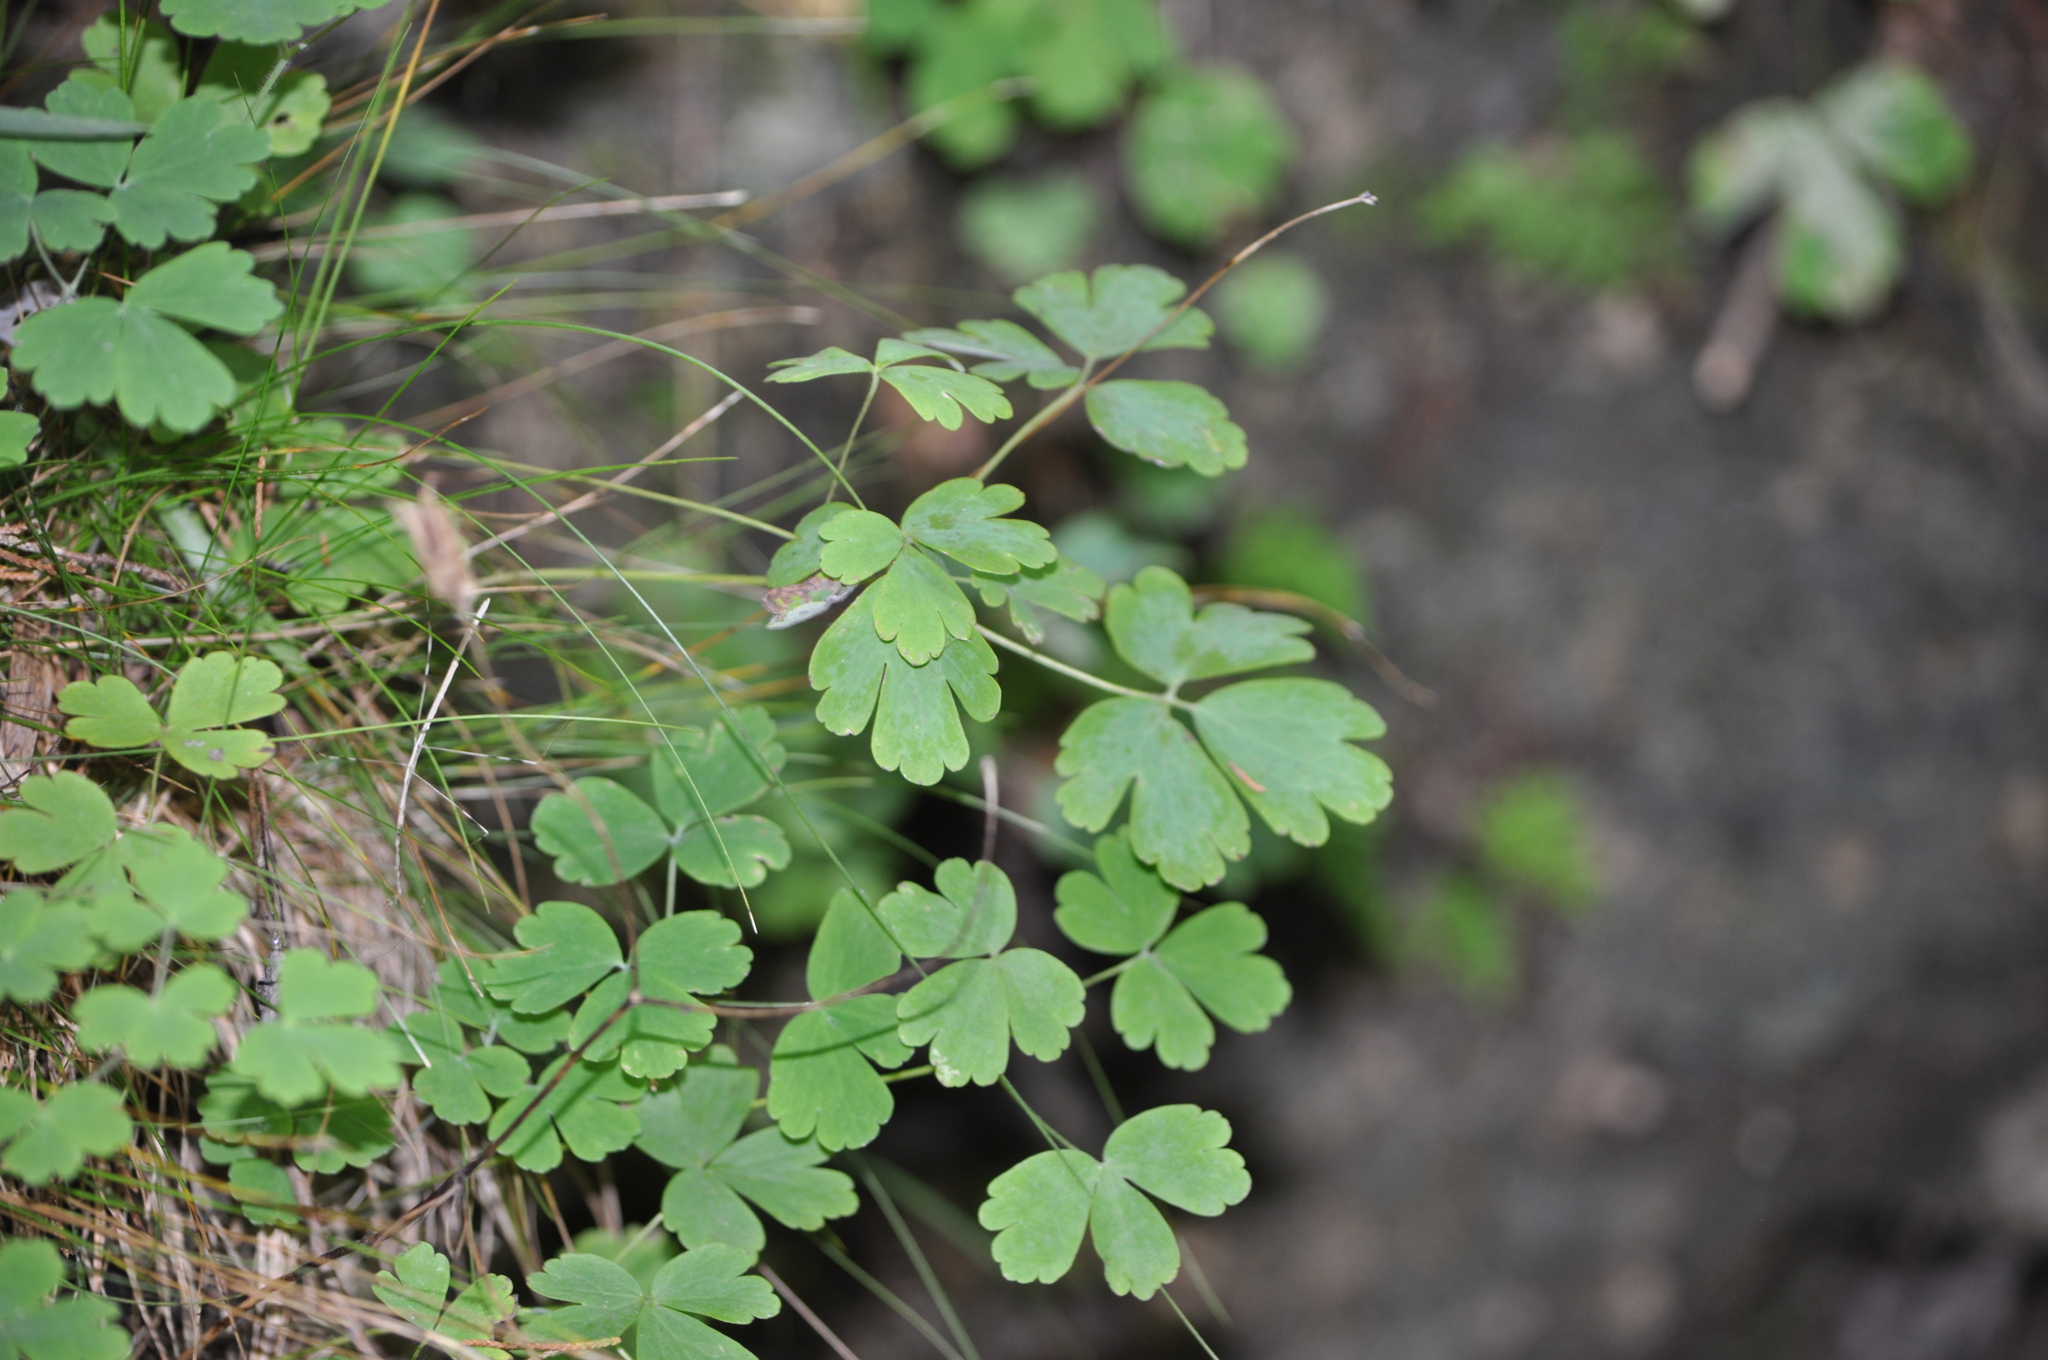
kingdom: Plantae
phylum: Tracheophyta
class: Magnoliopsida
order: Ranunculales
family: Ranunculaceae
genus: Aquilegia
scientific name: Aquilegia canadensis
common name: American columbine
